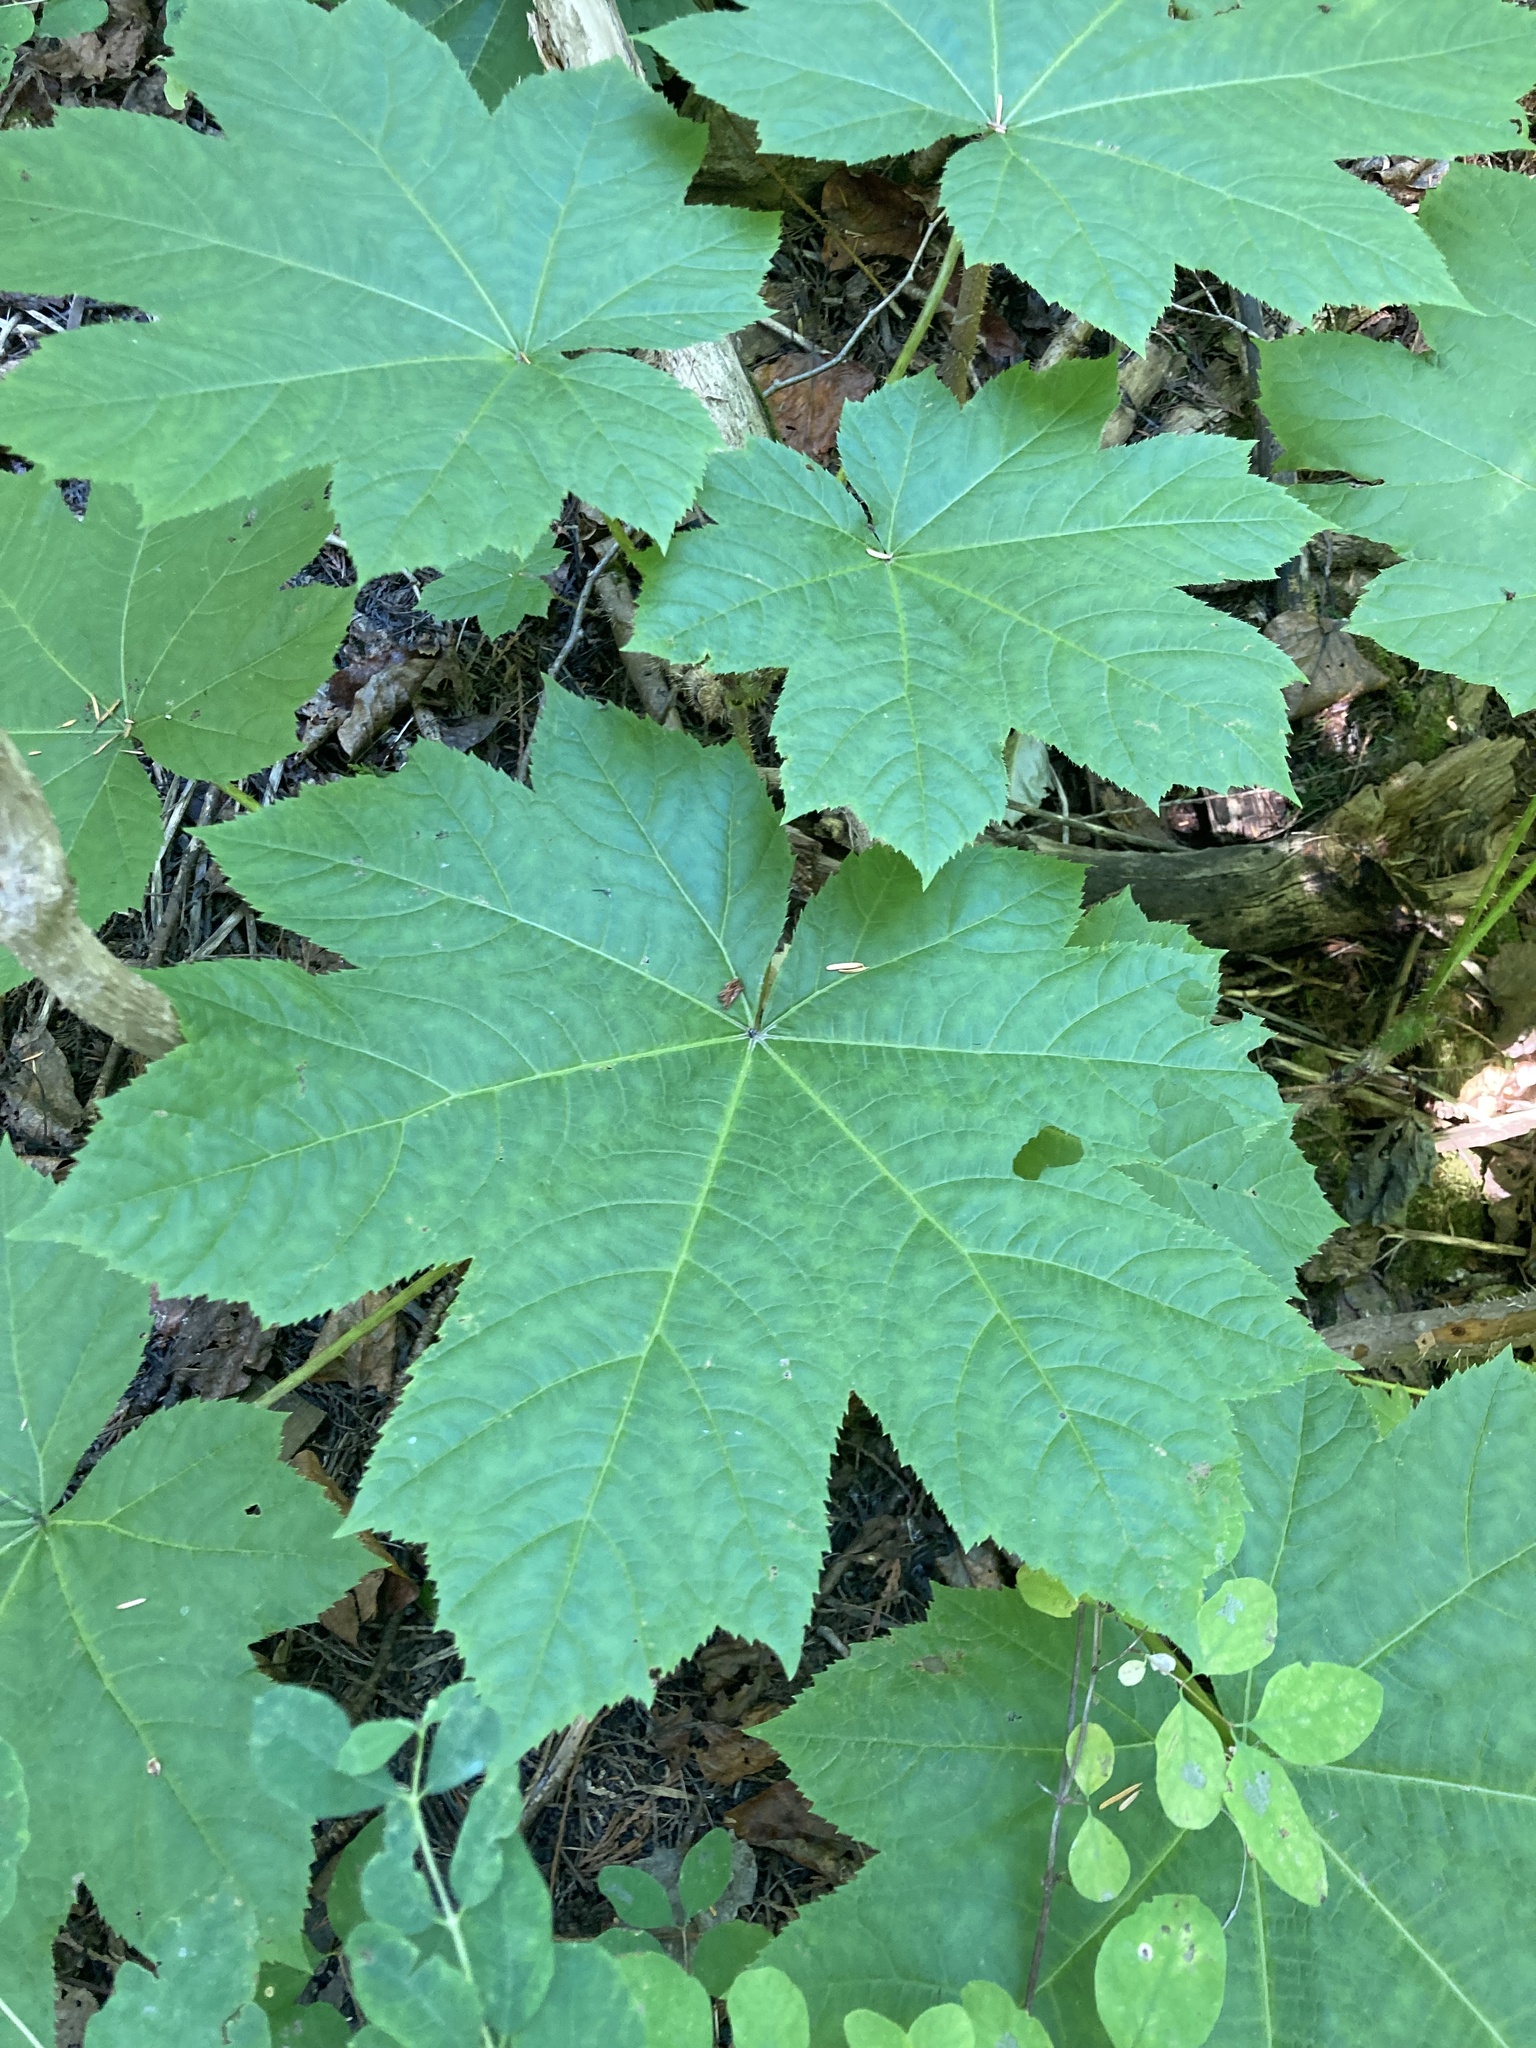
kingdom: Plantae
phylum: Tracheophyta
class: Magnoliopsida
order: Apiales
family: Araliaceae
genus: Oplopanax
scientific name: Oplopanax horridus
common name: Devil's walking-stick
